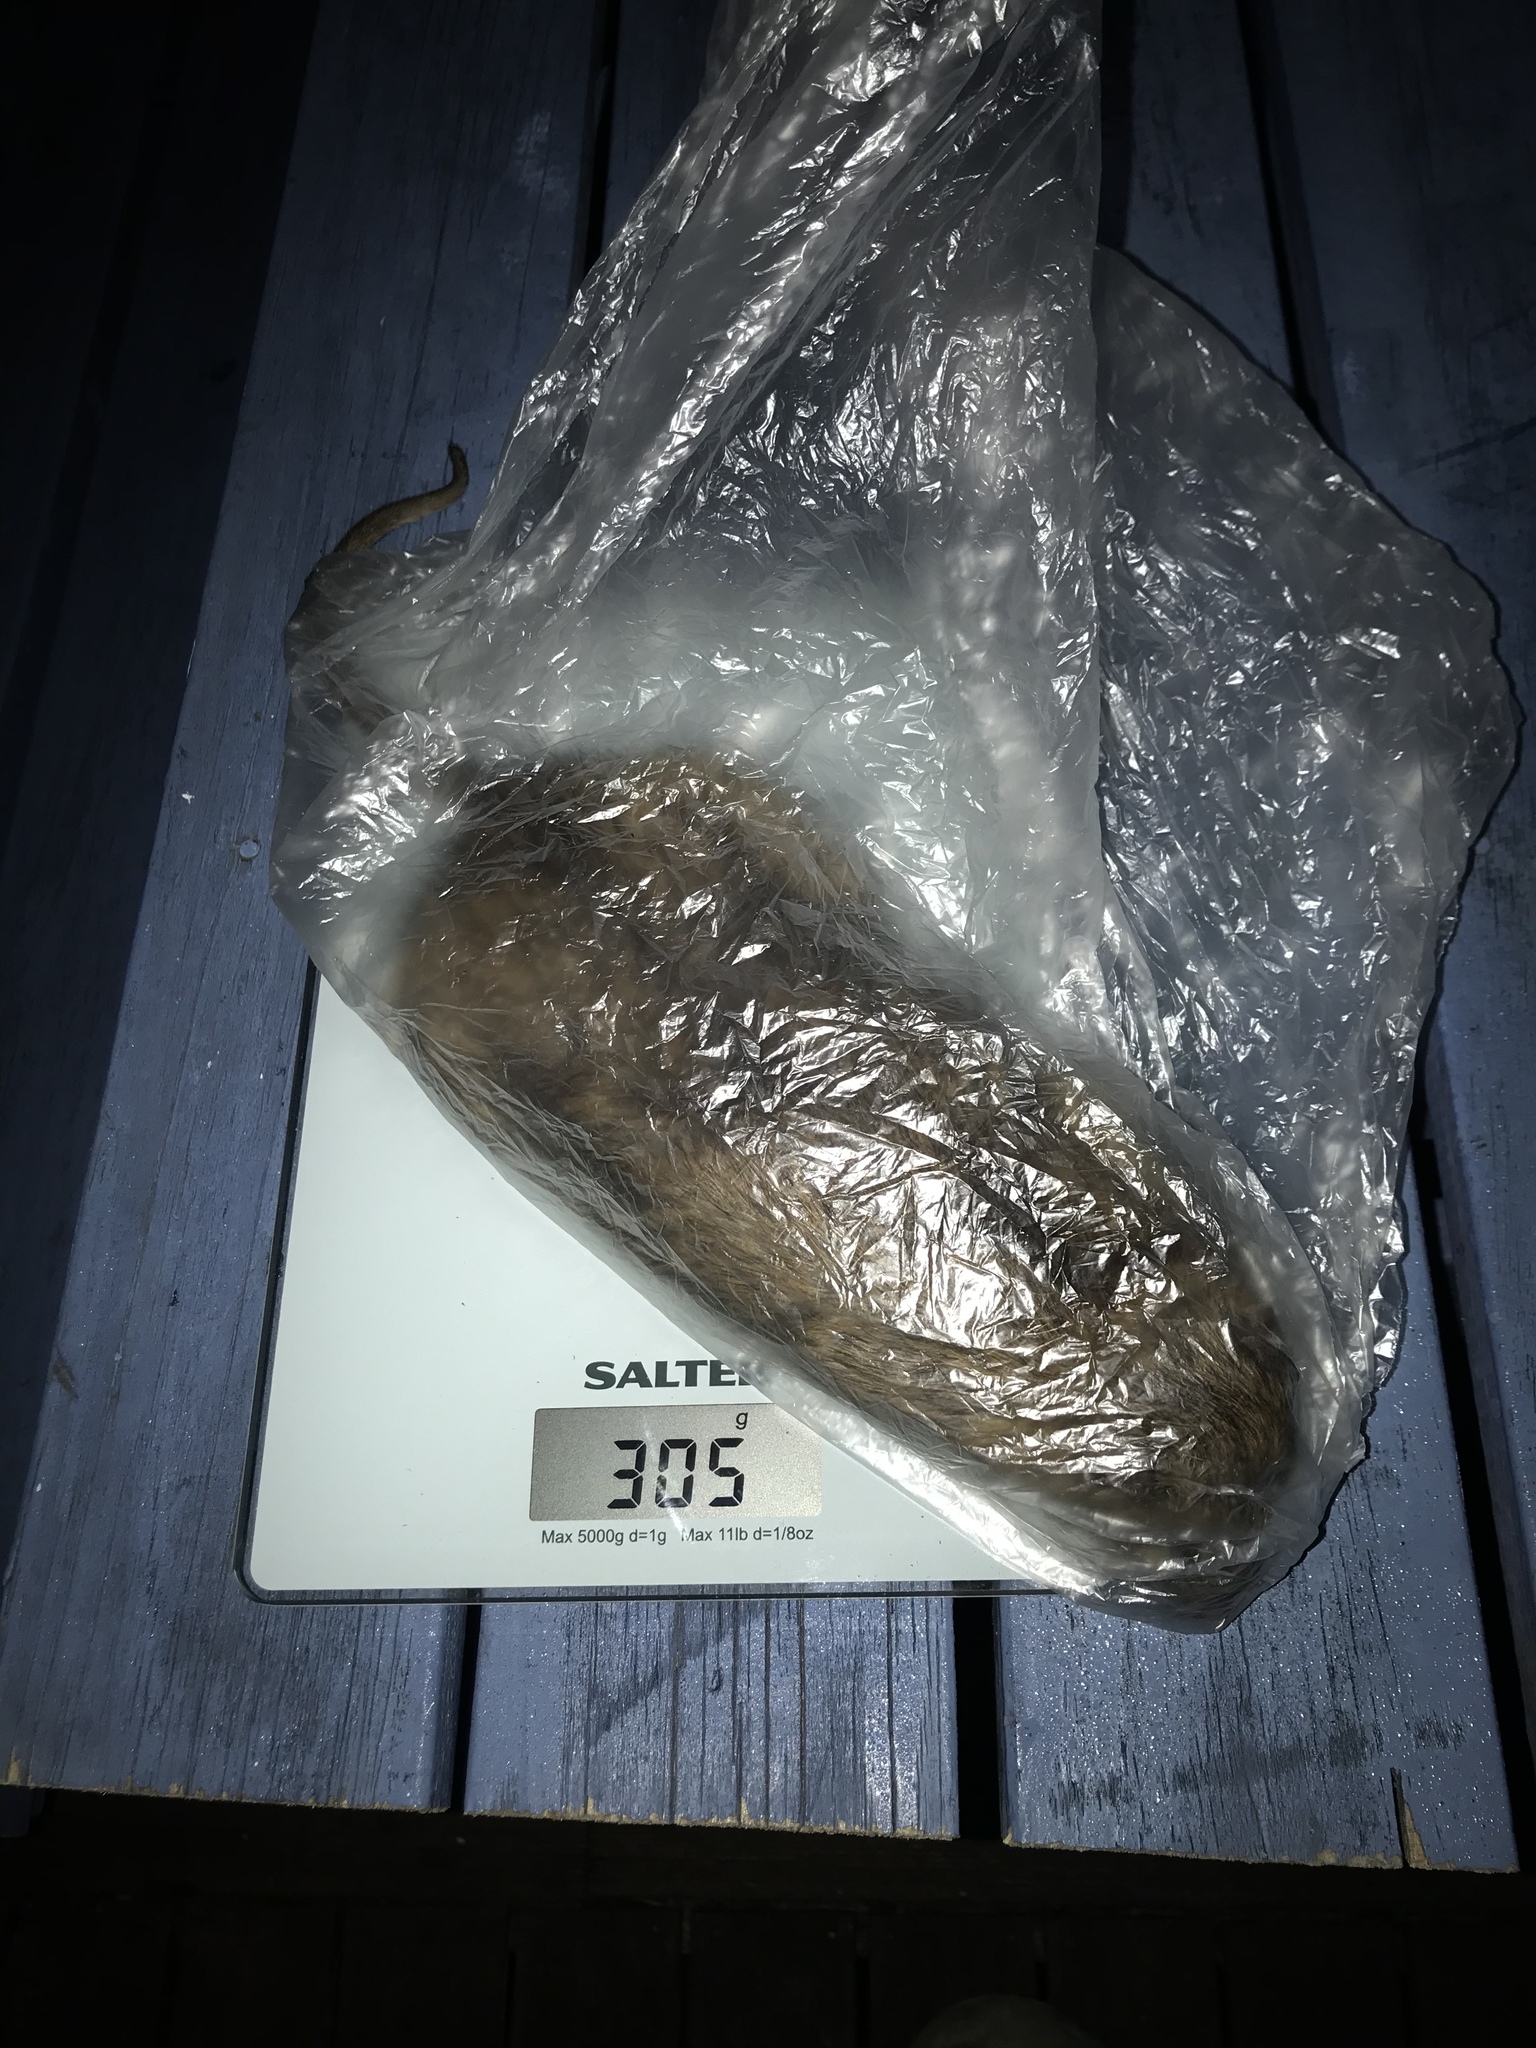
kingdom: Animalia
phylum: Chordata
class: Mammalia
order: Rodentia
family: Muridae
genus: Rattus
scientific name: Rattus norvegicus
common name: Brown rat
